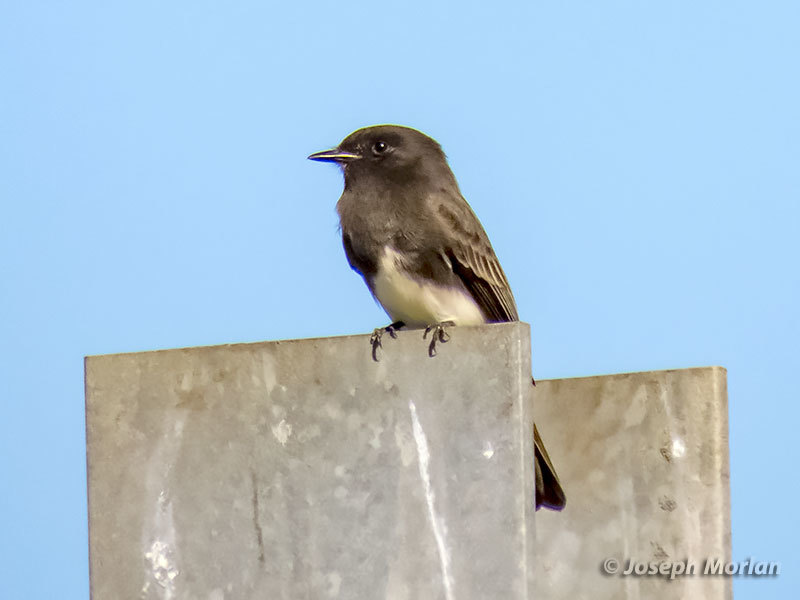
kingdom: Animalia
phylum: Chordata
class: Aves
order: Passeriformes
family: Tyrannidae
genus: Sayornis
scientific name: Sayornis nigricans
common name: Black phoebe
